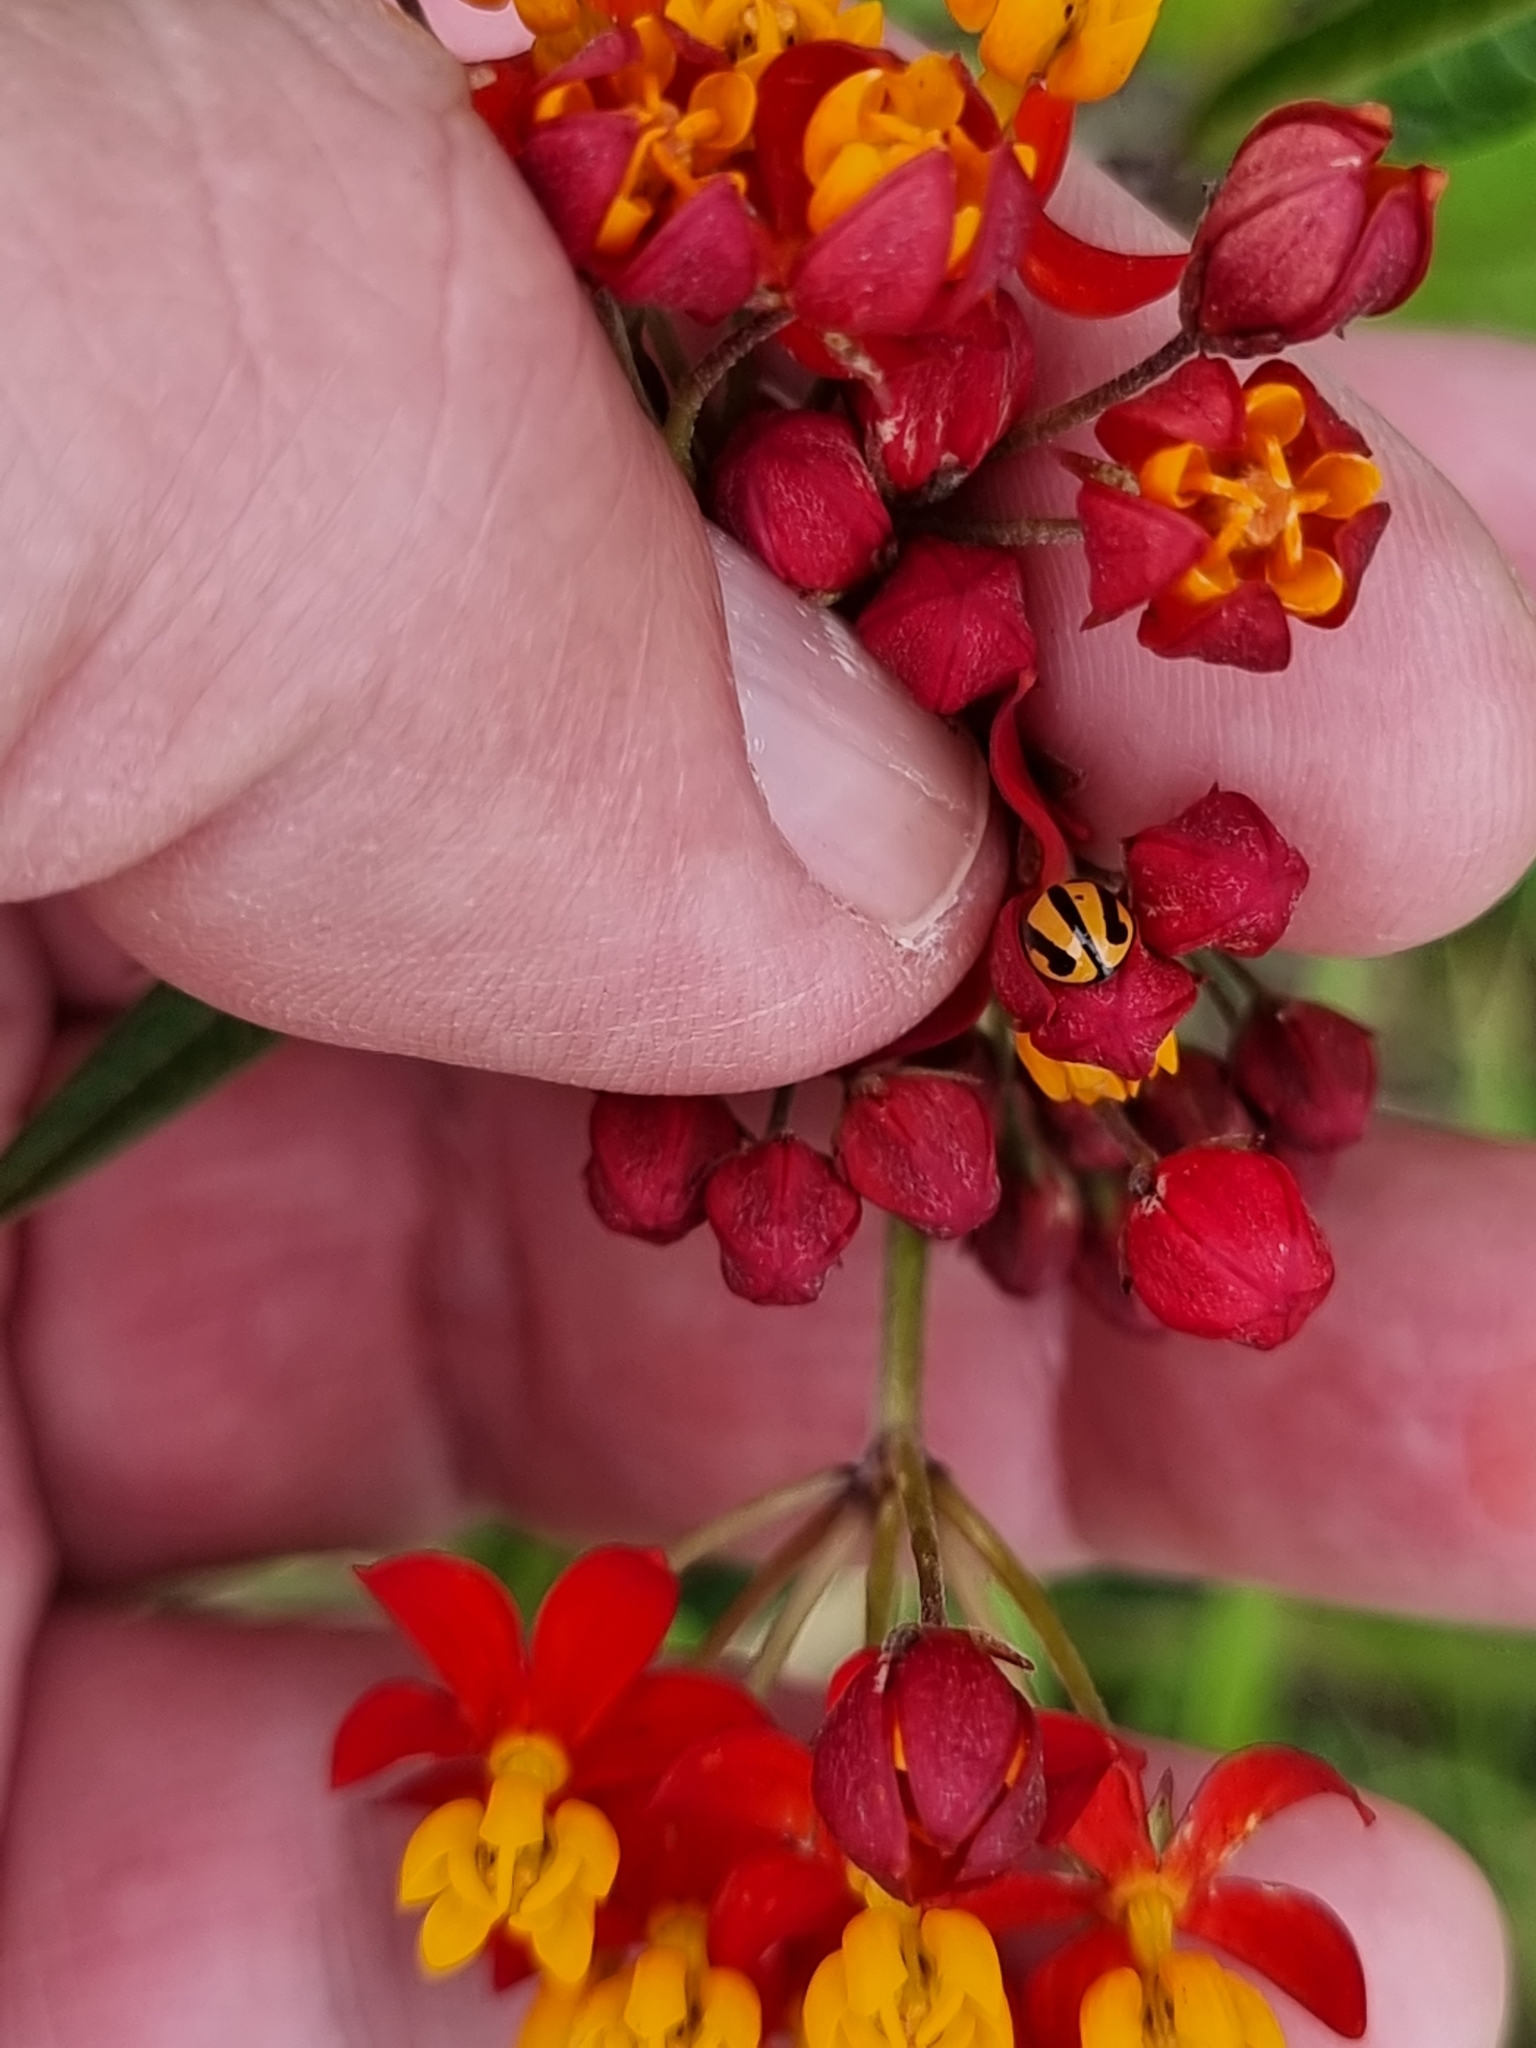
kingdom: Animalia
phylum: Arthropoda
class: Insecta
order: Coleoptera
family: Coccinellidae
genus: Micraspis
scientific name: Micraspis frenata
